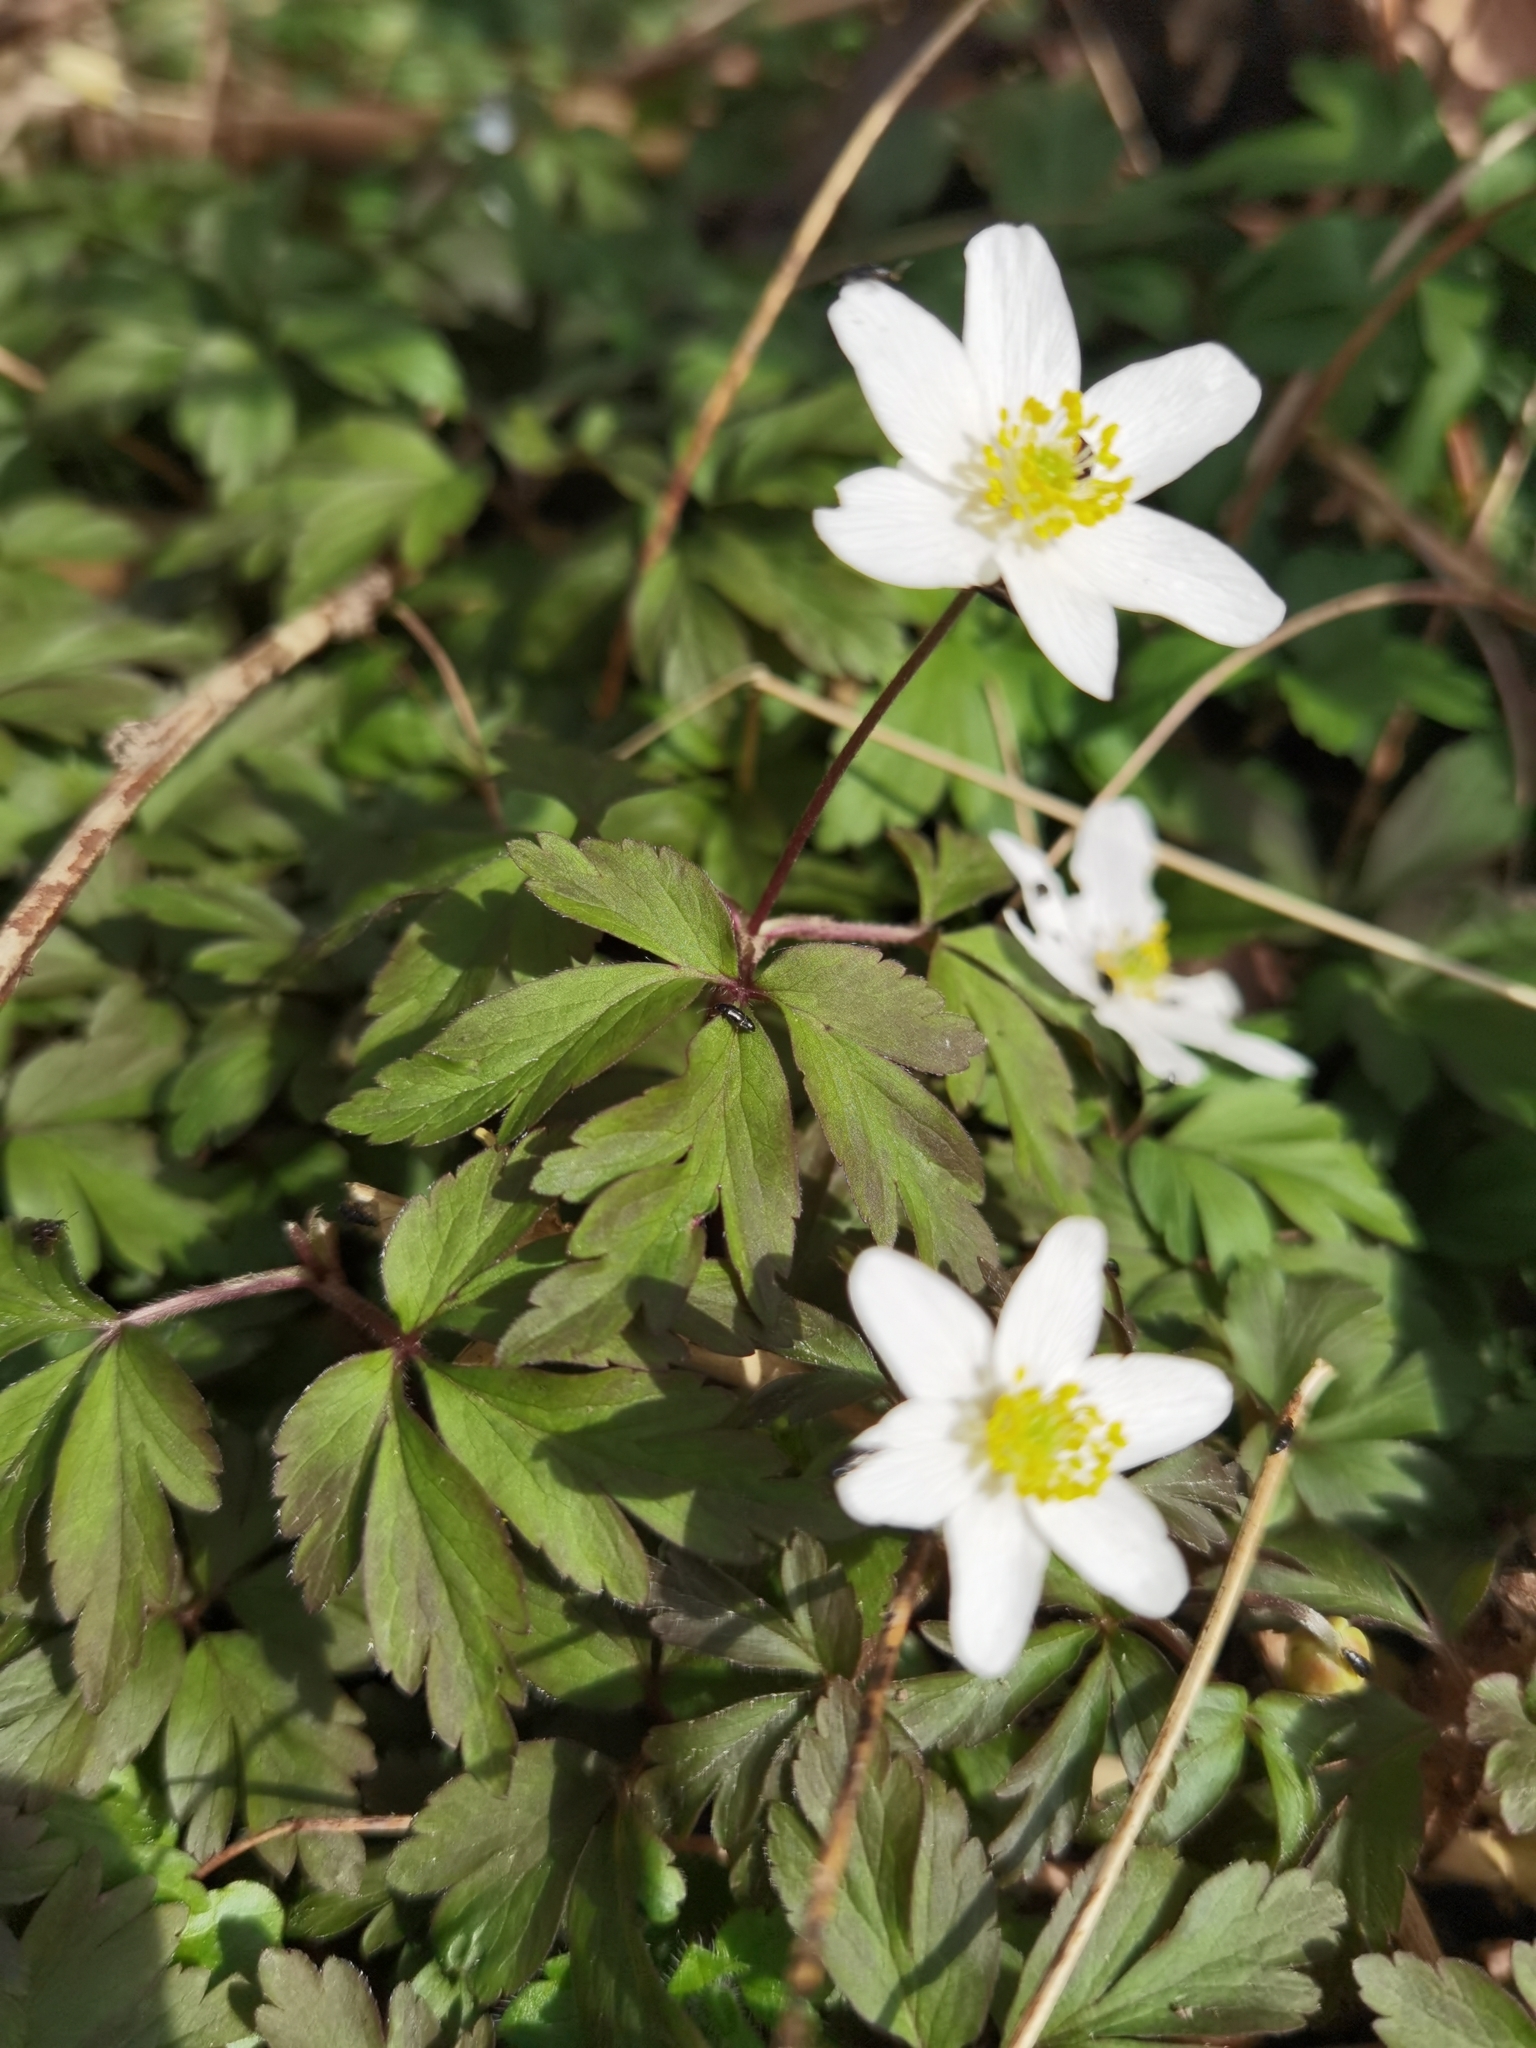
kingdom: Plantae
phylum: Tracheophyta
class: Magnoliopsida
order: Ranunculales
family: Ranunculaceae
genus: Anemone
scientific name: Anemone nemorosa
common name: Wood anemone
